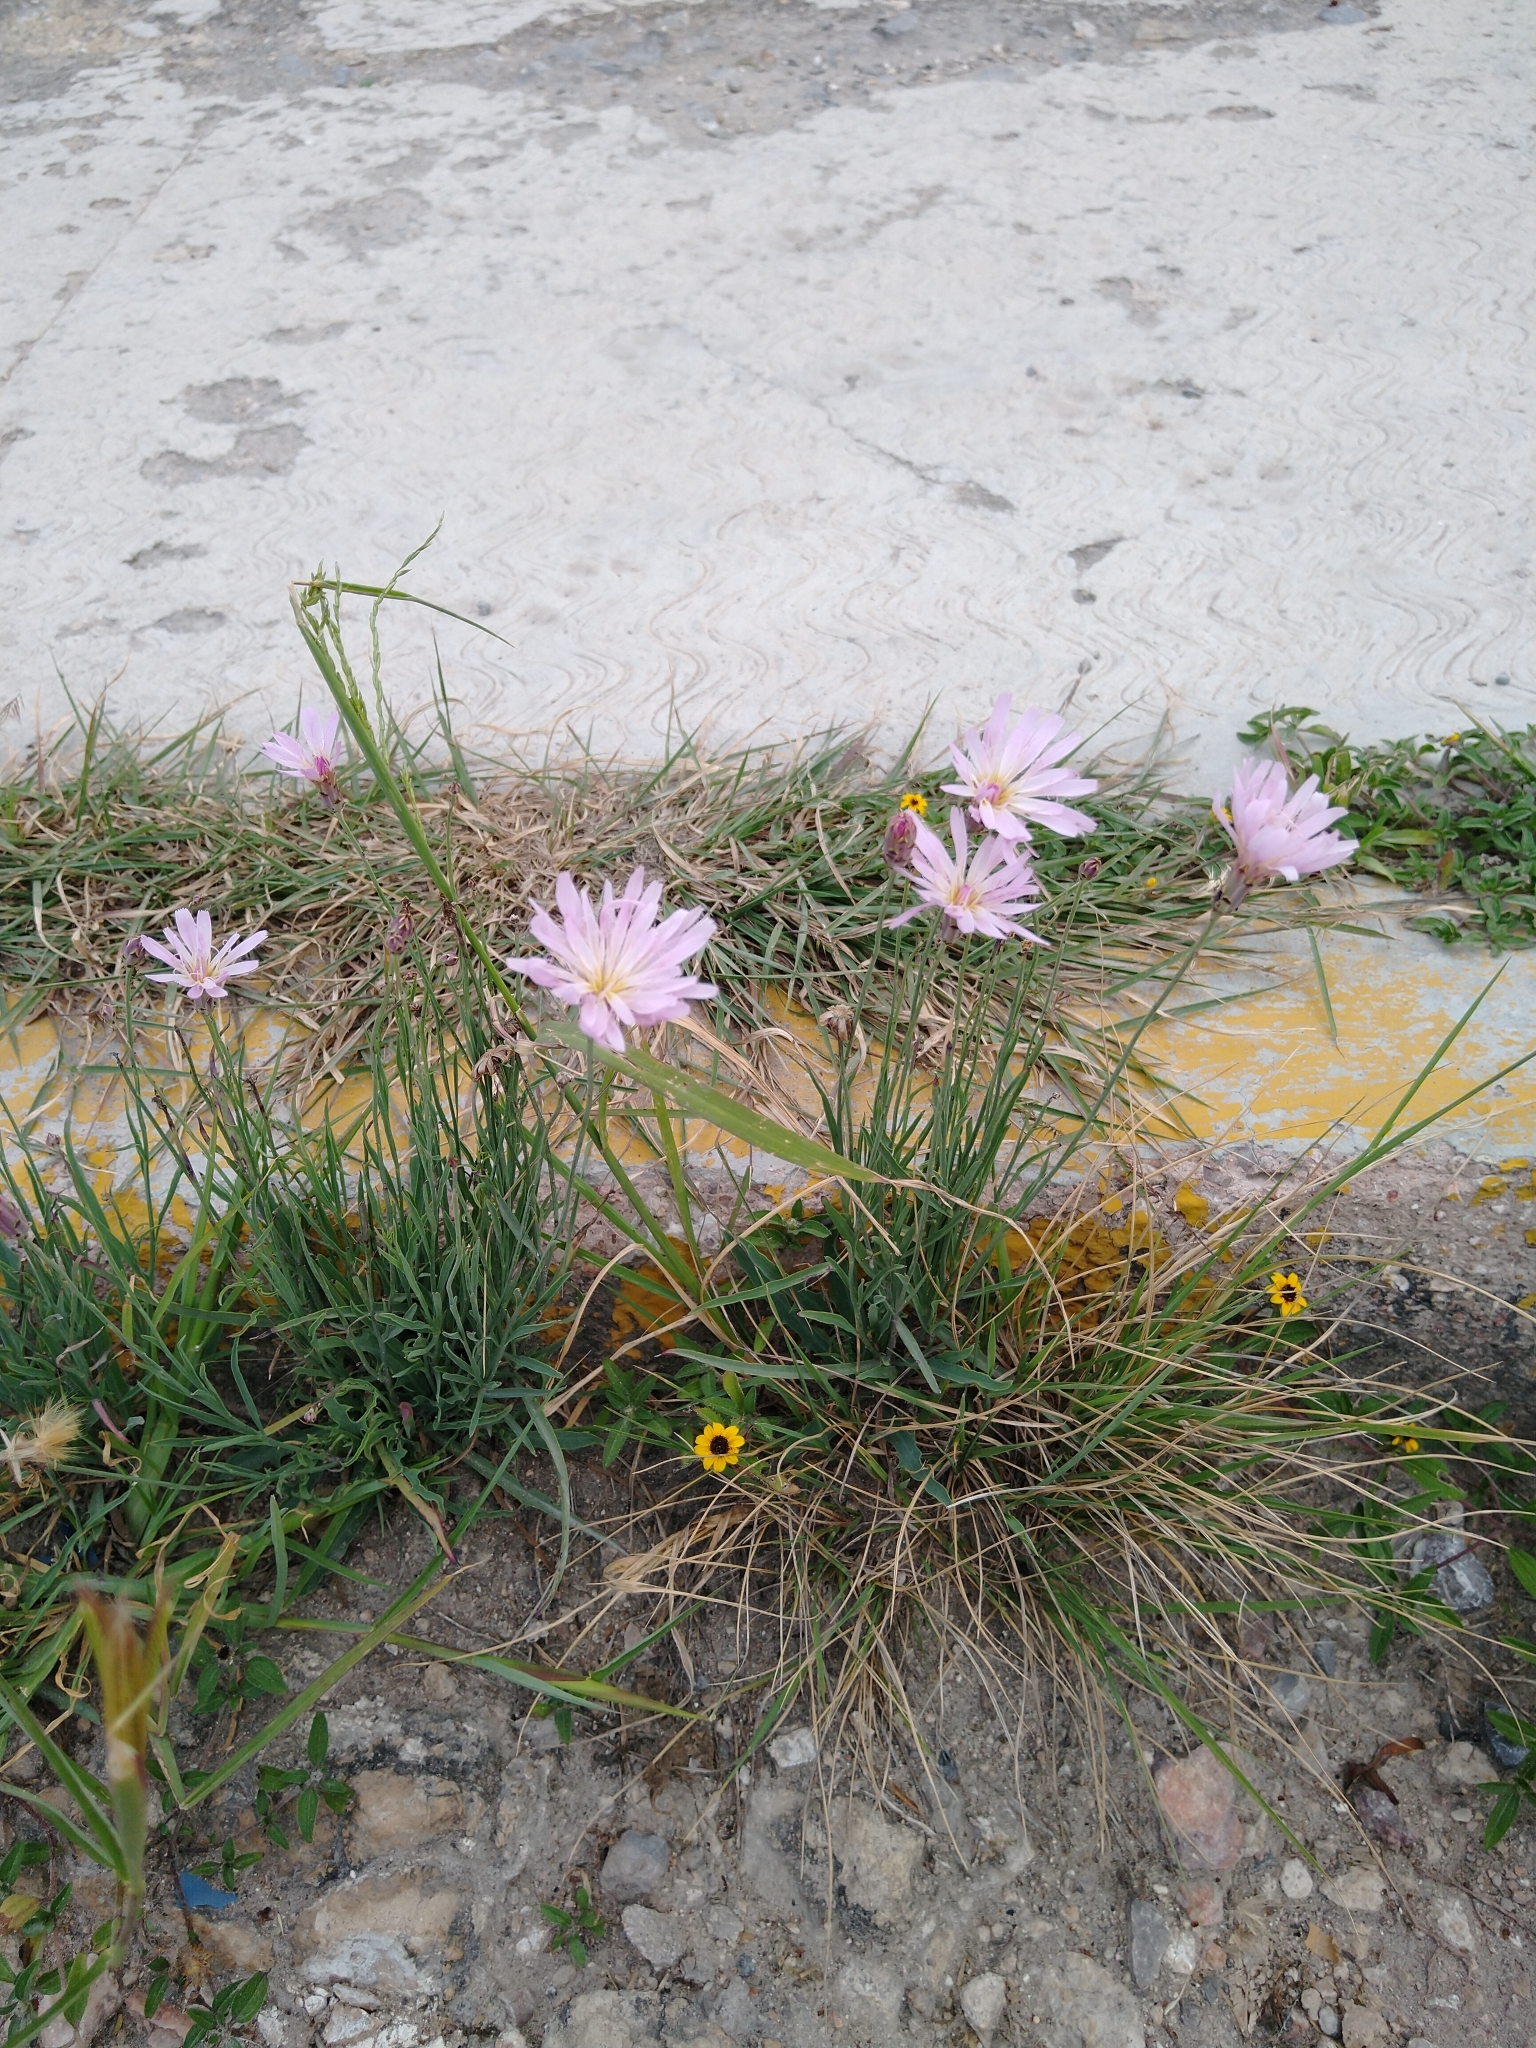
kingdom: Plantae
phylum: Tracheophyta
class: Magnoliopsida
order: Asterales
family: Asteraceae
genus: Pinaropappus
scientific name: Pinaropappus roseus
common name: Rock-lettuce
